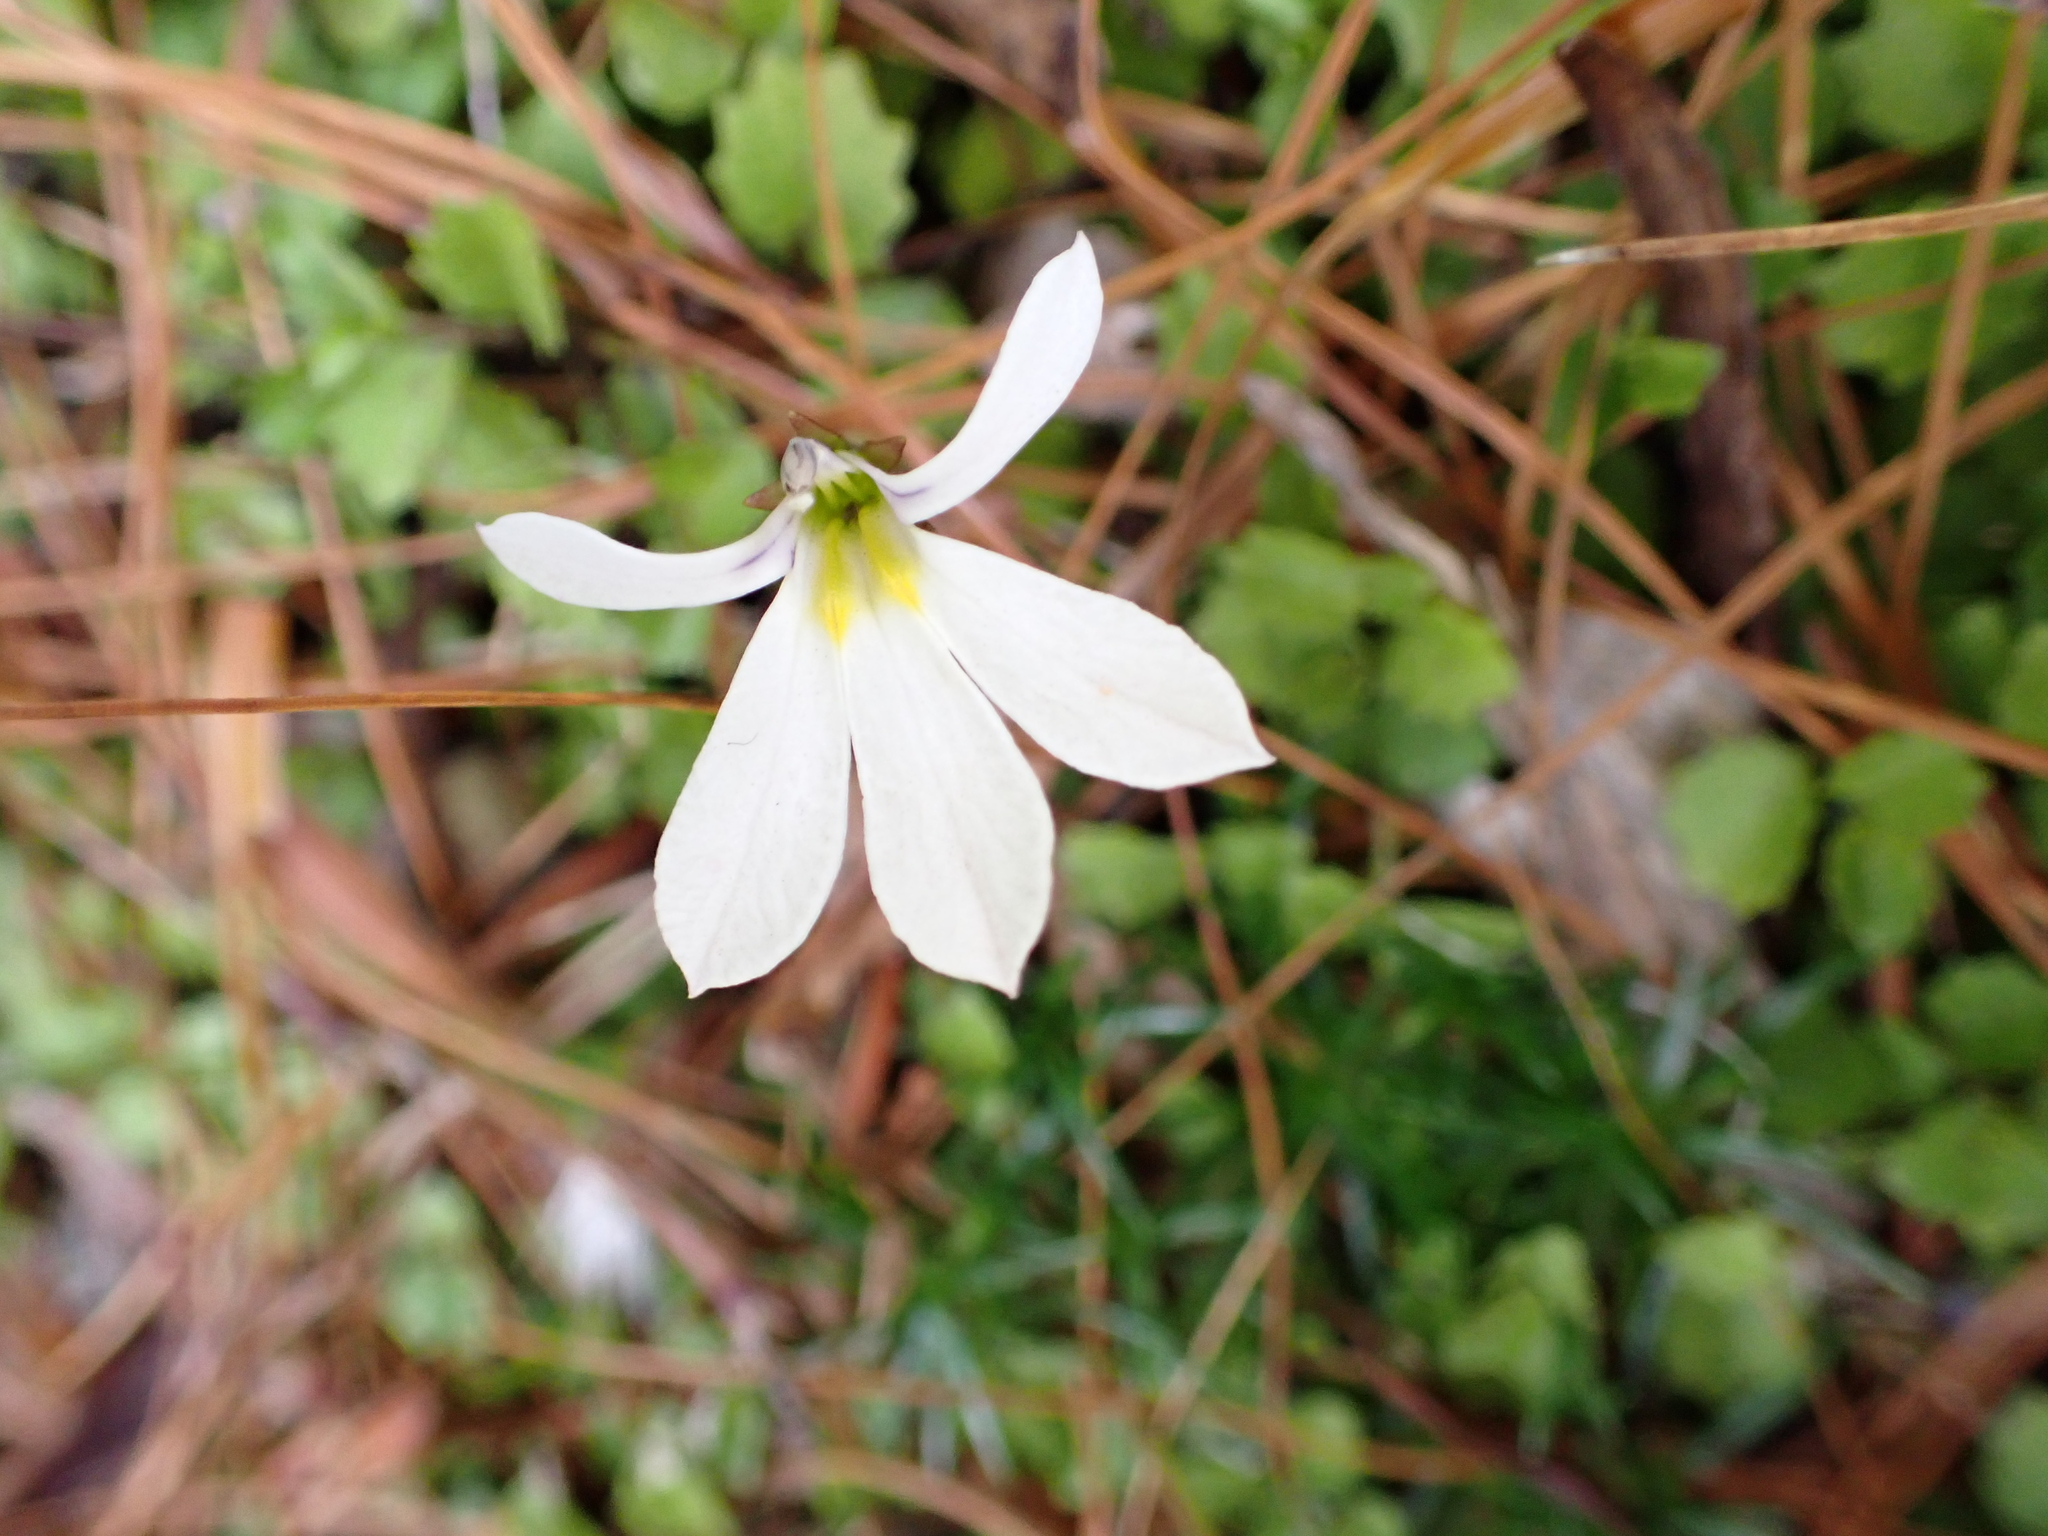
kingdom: Plantae
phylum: Tracheophyta
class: Magnoliopsida
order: Asterales
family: Campanulaceae
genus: Lobelia
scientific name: Lobelia angulata
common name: Lawn lobelia
